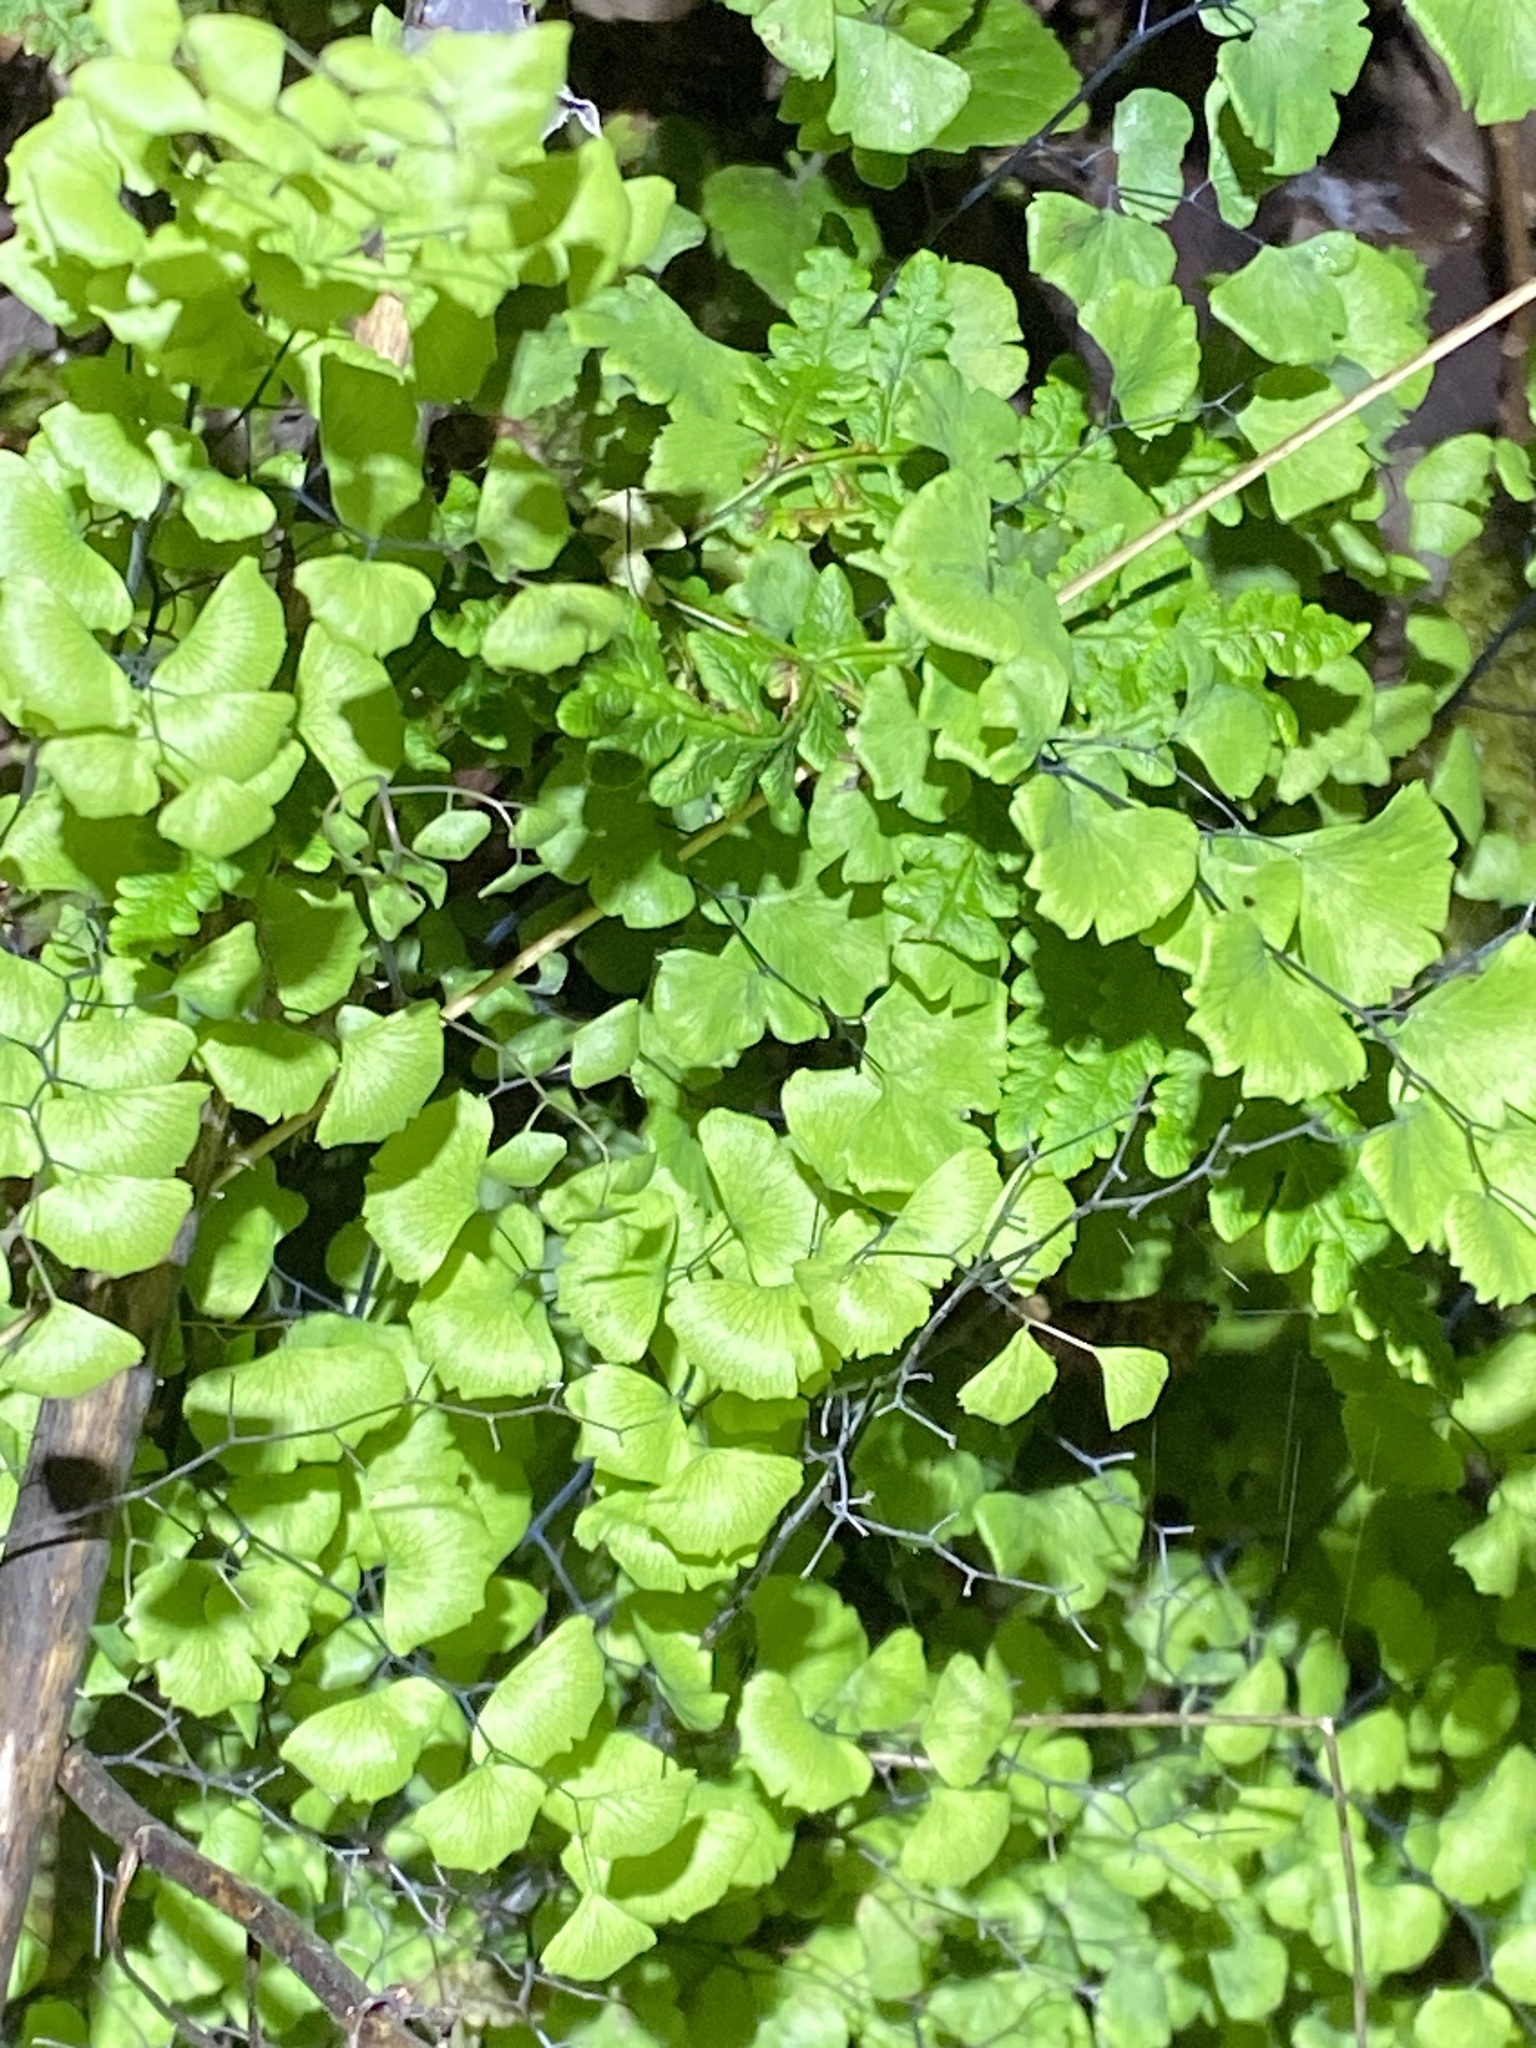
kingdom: Plantae
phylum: Tracheophyta
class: Polypodiopsida
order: Polypodiales
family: Pteridaceae
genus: Adiantum
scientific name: Adiantum jordanii
